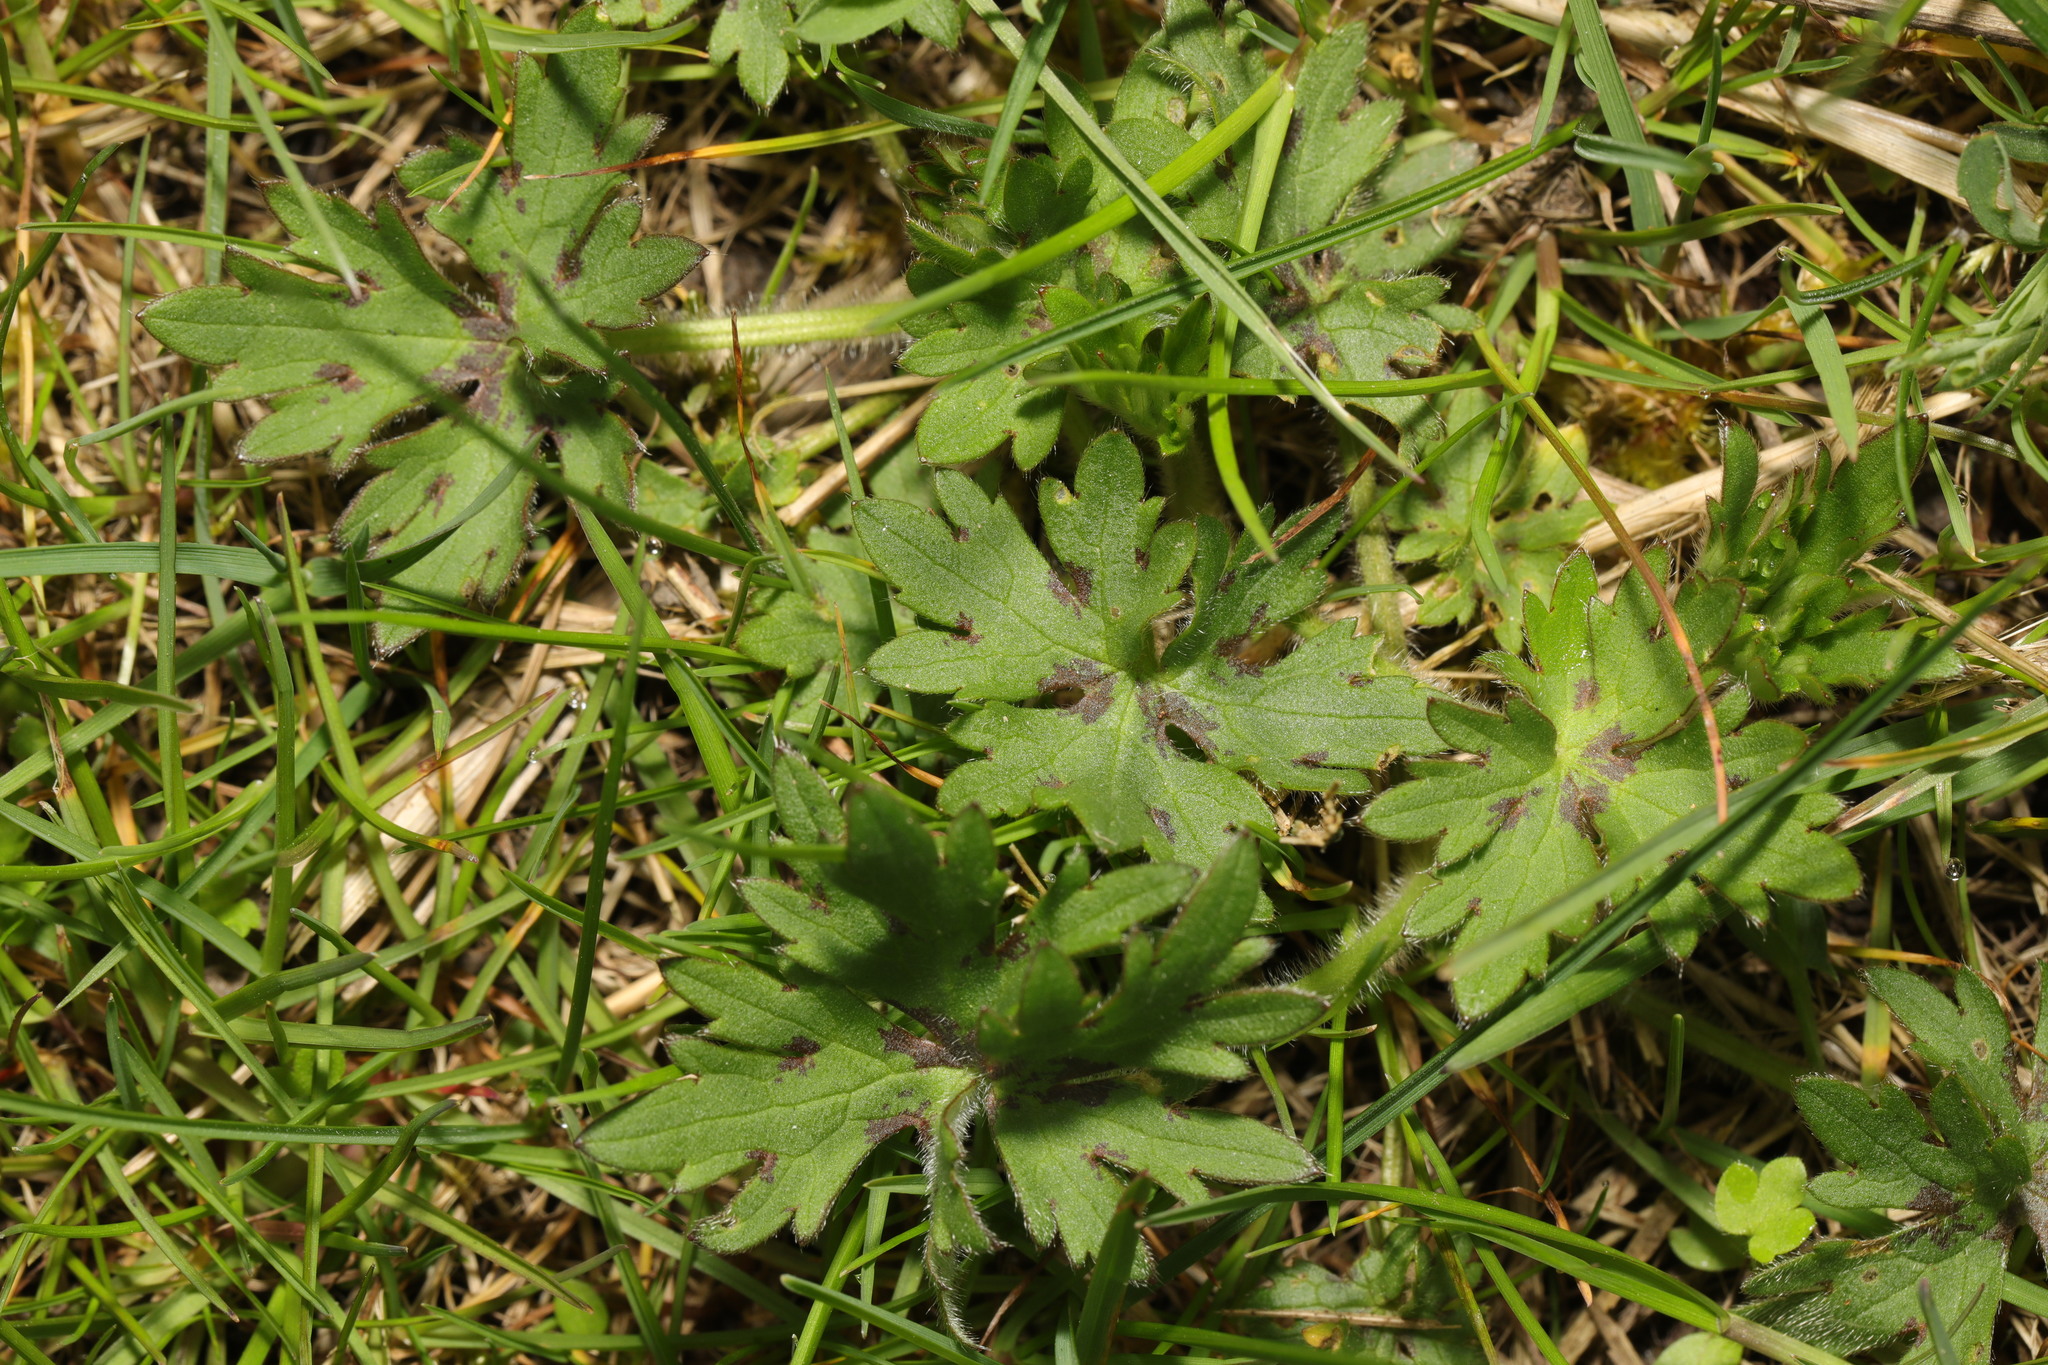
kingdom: Plantae
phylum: Tracheophyta
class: Magnoliopsida
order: Ranunculales
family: Ranunculaceae
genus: Ranunculus
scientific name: Ranunculus repens
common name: Creeping buttercup
